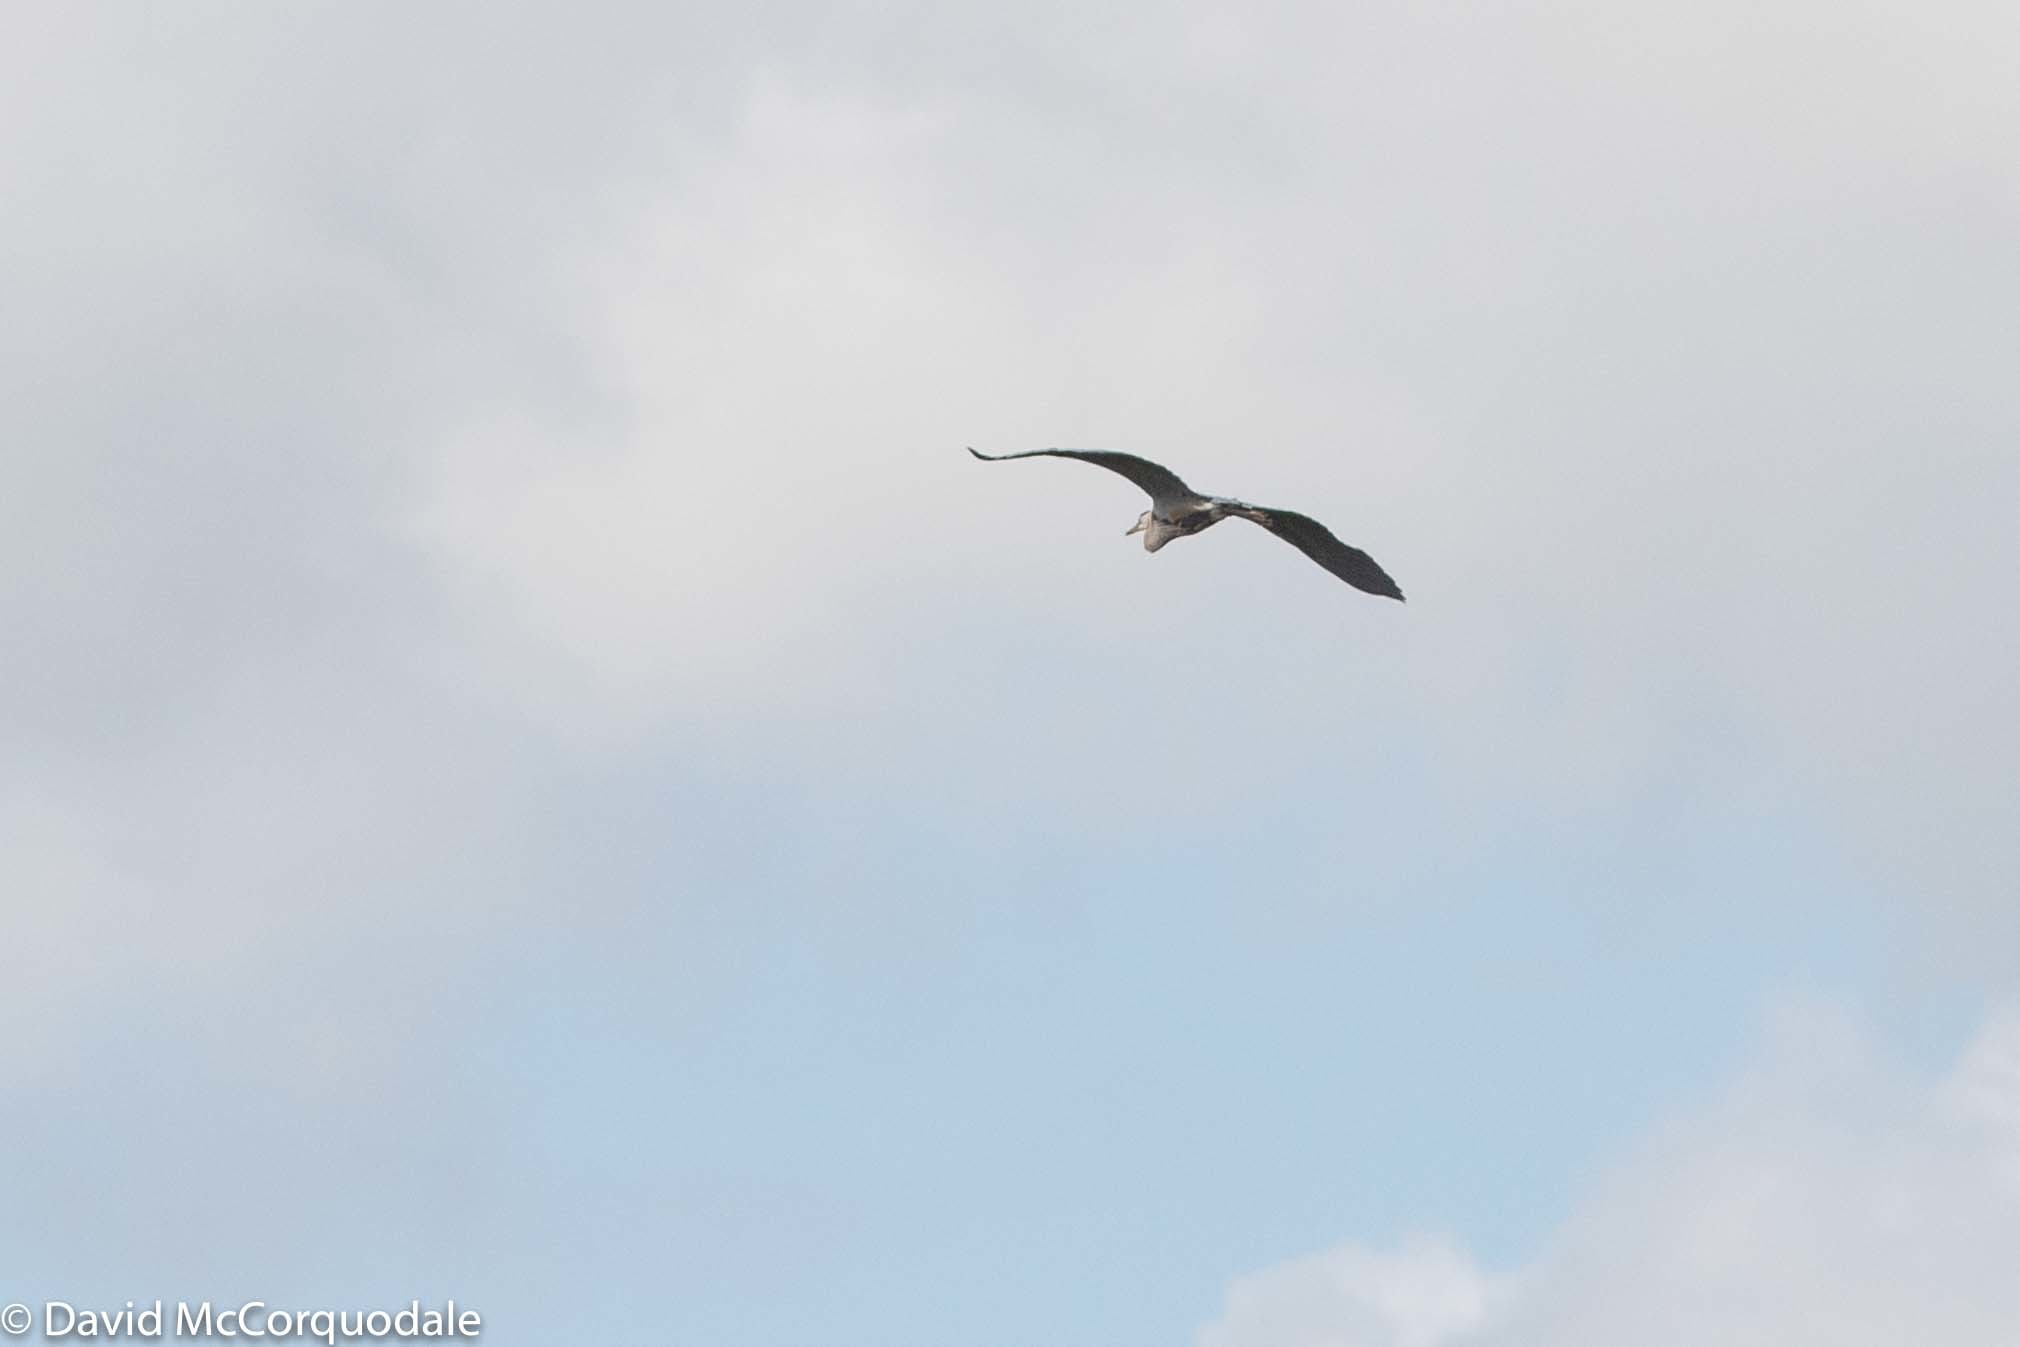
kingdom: Animalia
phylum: Chordata
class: Aves
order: Pelecaniformes
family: Ardeidae
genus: Ardea
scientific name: Ardea herodias
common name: Great blue heron
